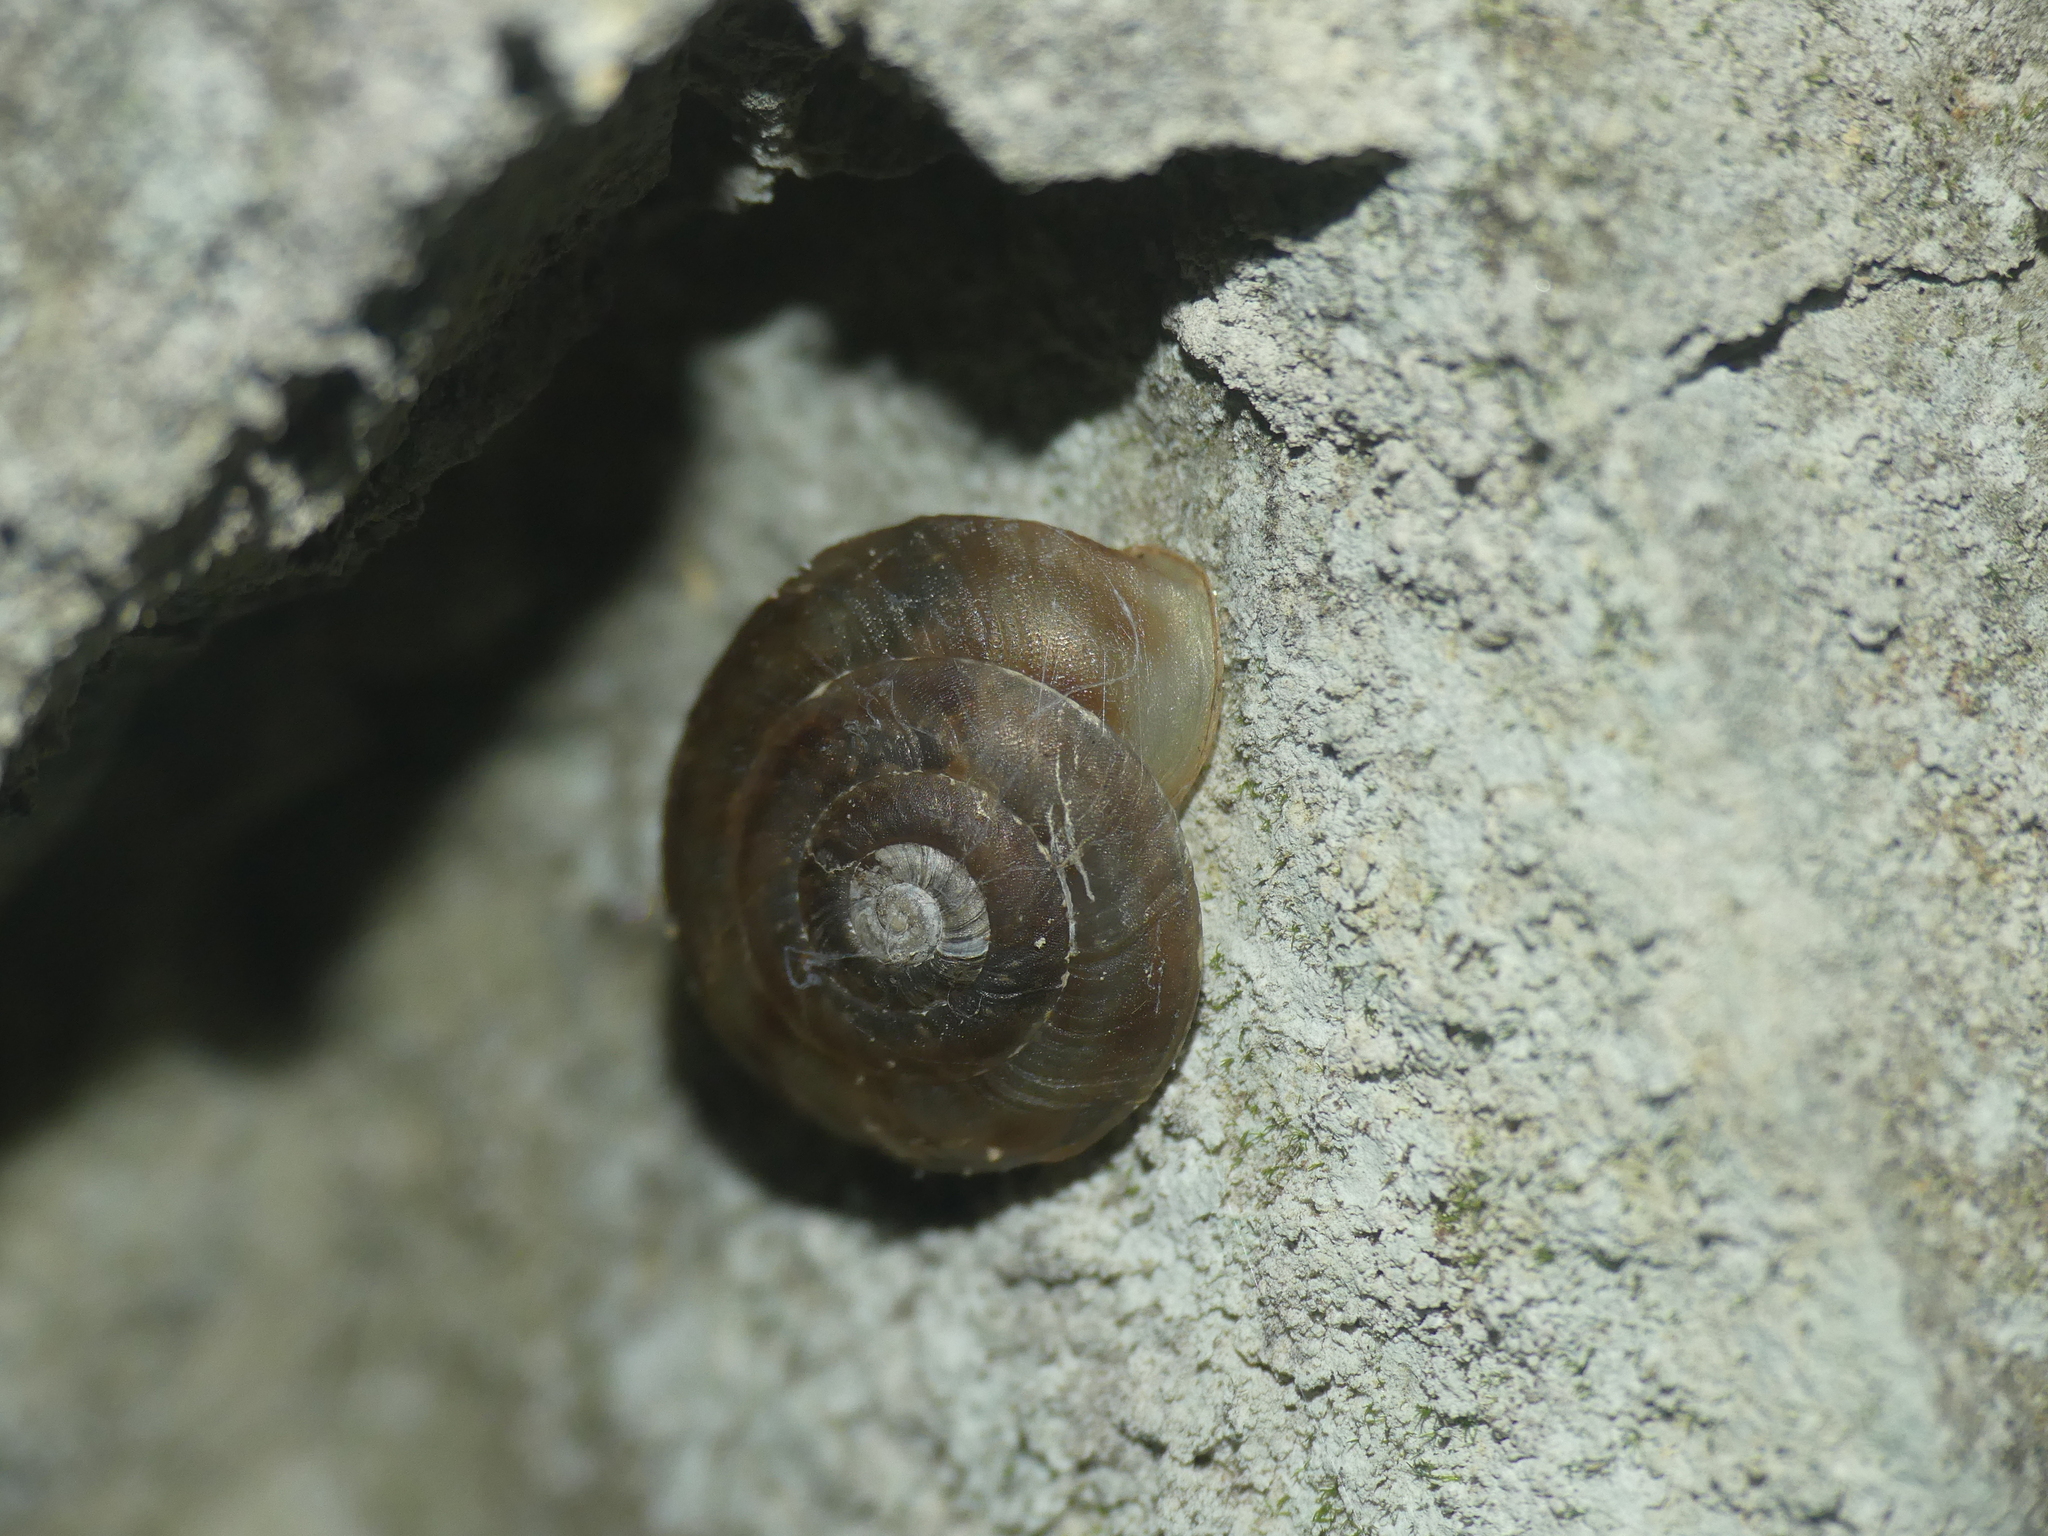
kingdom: Animalia
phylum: Mollusca
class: Gastropoda
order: Stylommatophora
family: Helicidae
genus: Helicigona
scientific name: Helicigona lapicida
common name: Lapidary snail
